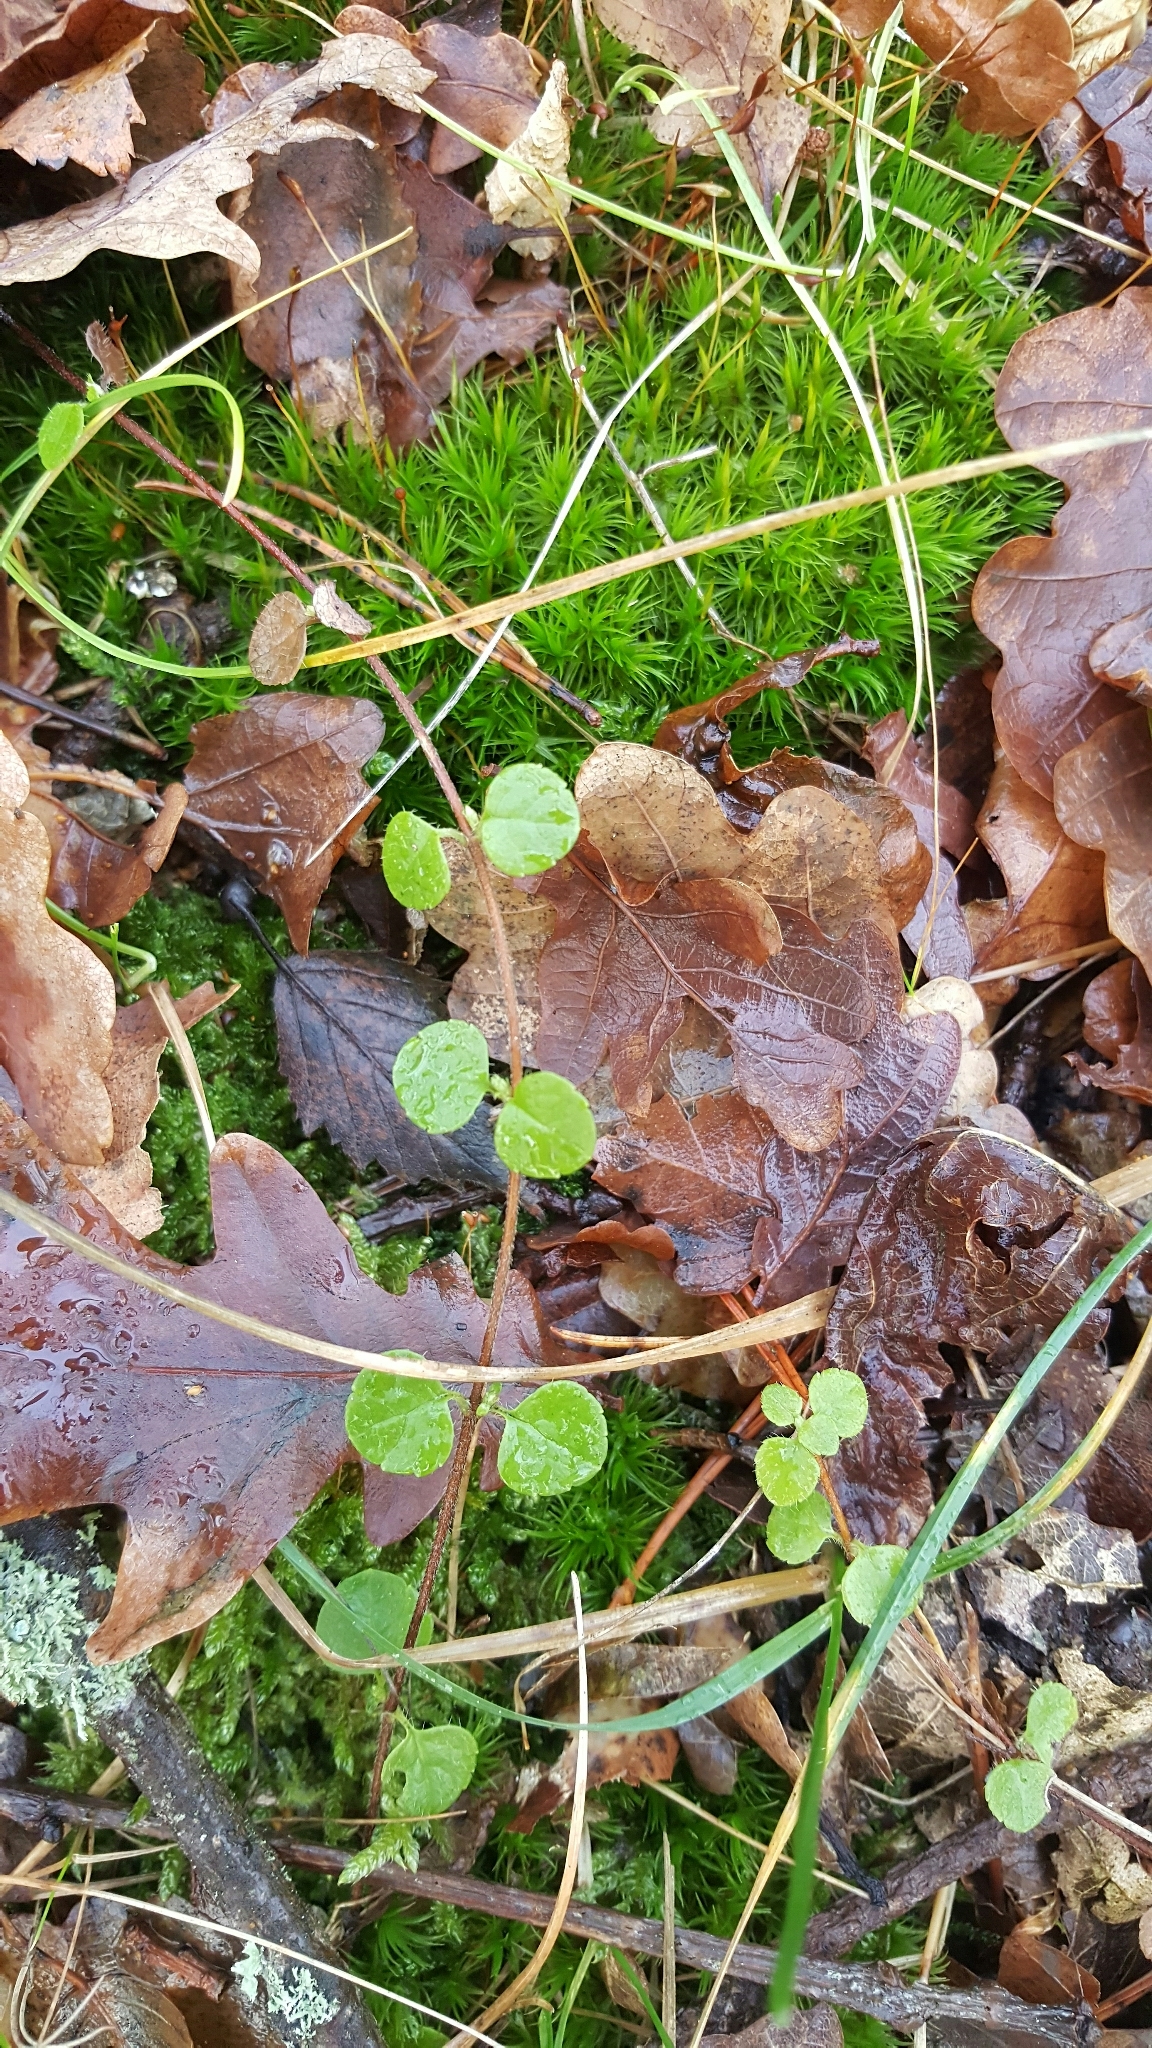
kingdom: Plantae
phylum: Tracheophyta
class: Magnoliopsida
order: Dipsacales
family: Caprifoliaceae
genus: Linnaea
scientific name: Linnaea borealis
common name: Twinflower
